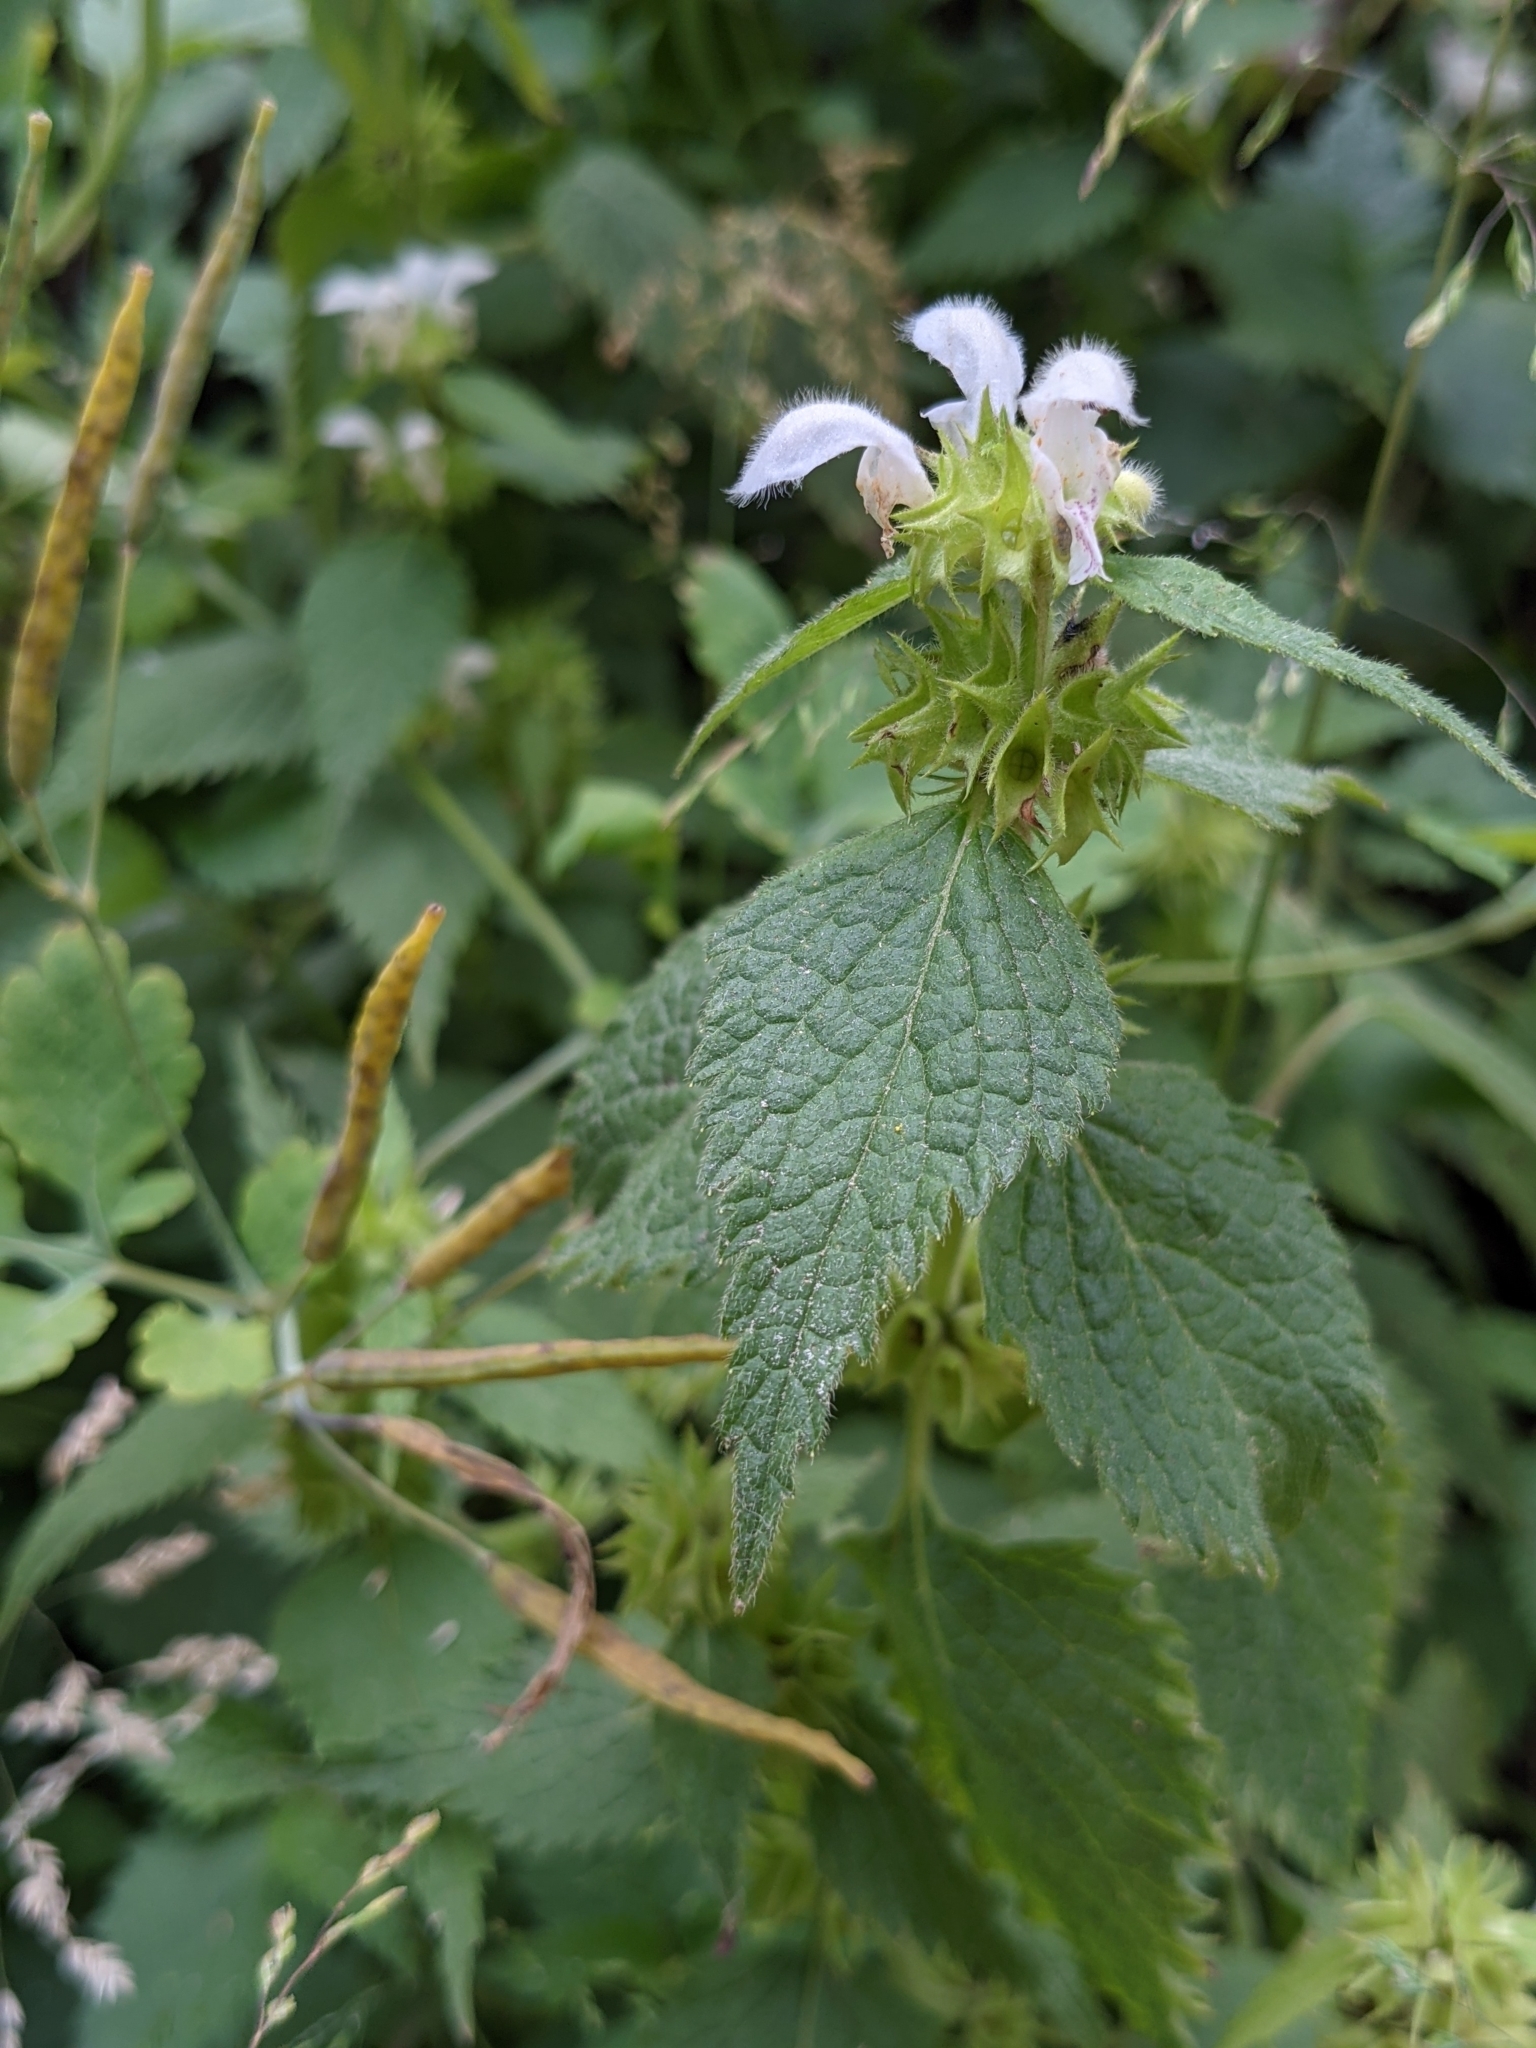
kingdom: Plantae
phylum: Tracheophyta
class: Magnoliopsida
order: Lamiales
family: Lamiaceae
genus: Lamium
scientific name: Lamium flexuosum
